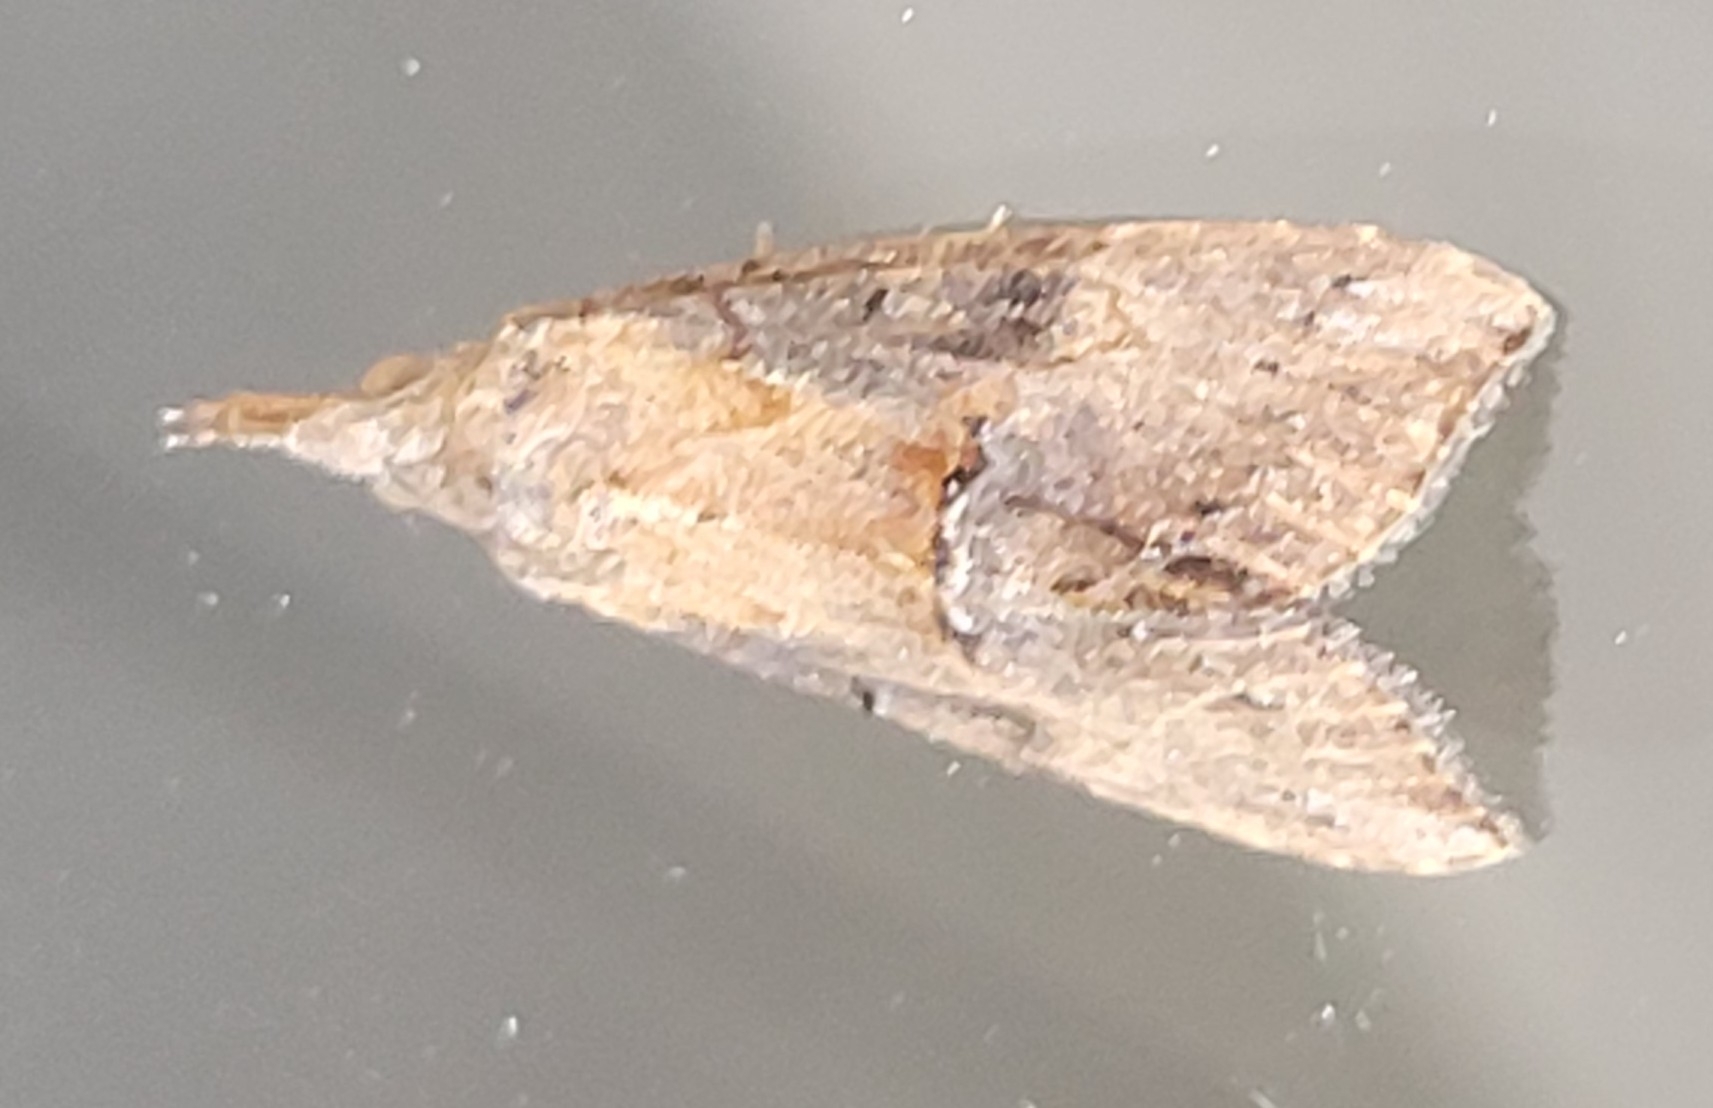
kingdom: Animalia
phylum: Arthropoda
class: Insecta
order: Lepidoptera
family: Erebidae
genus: Hypena
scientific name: Hypena scabra
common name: Green cloverworm
